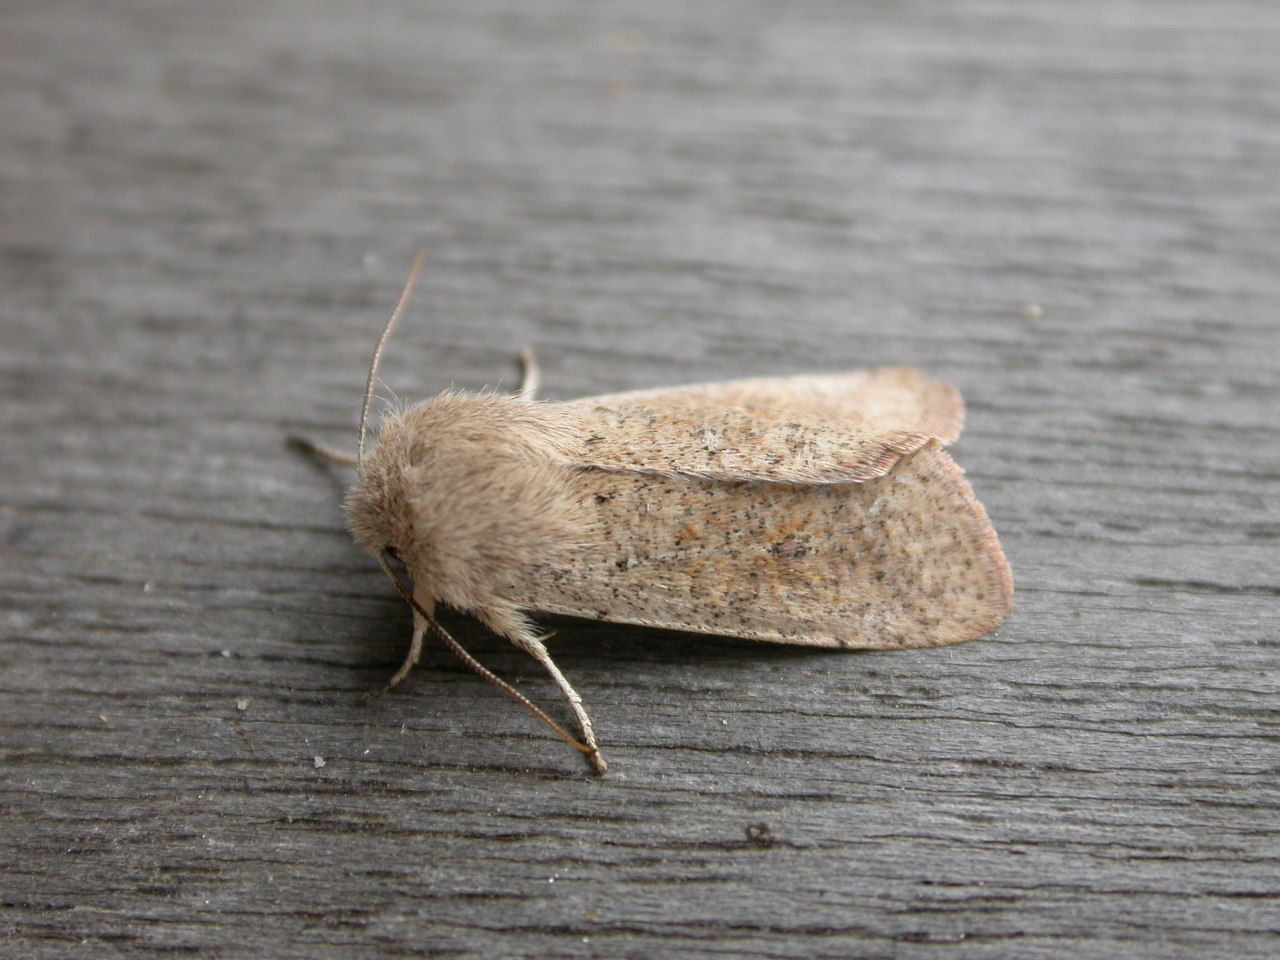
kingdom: Animalia
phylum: Arthropoda
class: Insecta
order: Lepidoptera
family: Noctuidae
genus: Orthosia
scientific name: Orthosia cruda
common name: Small quaker
